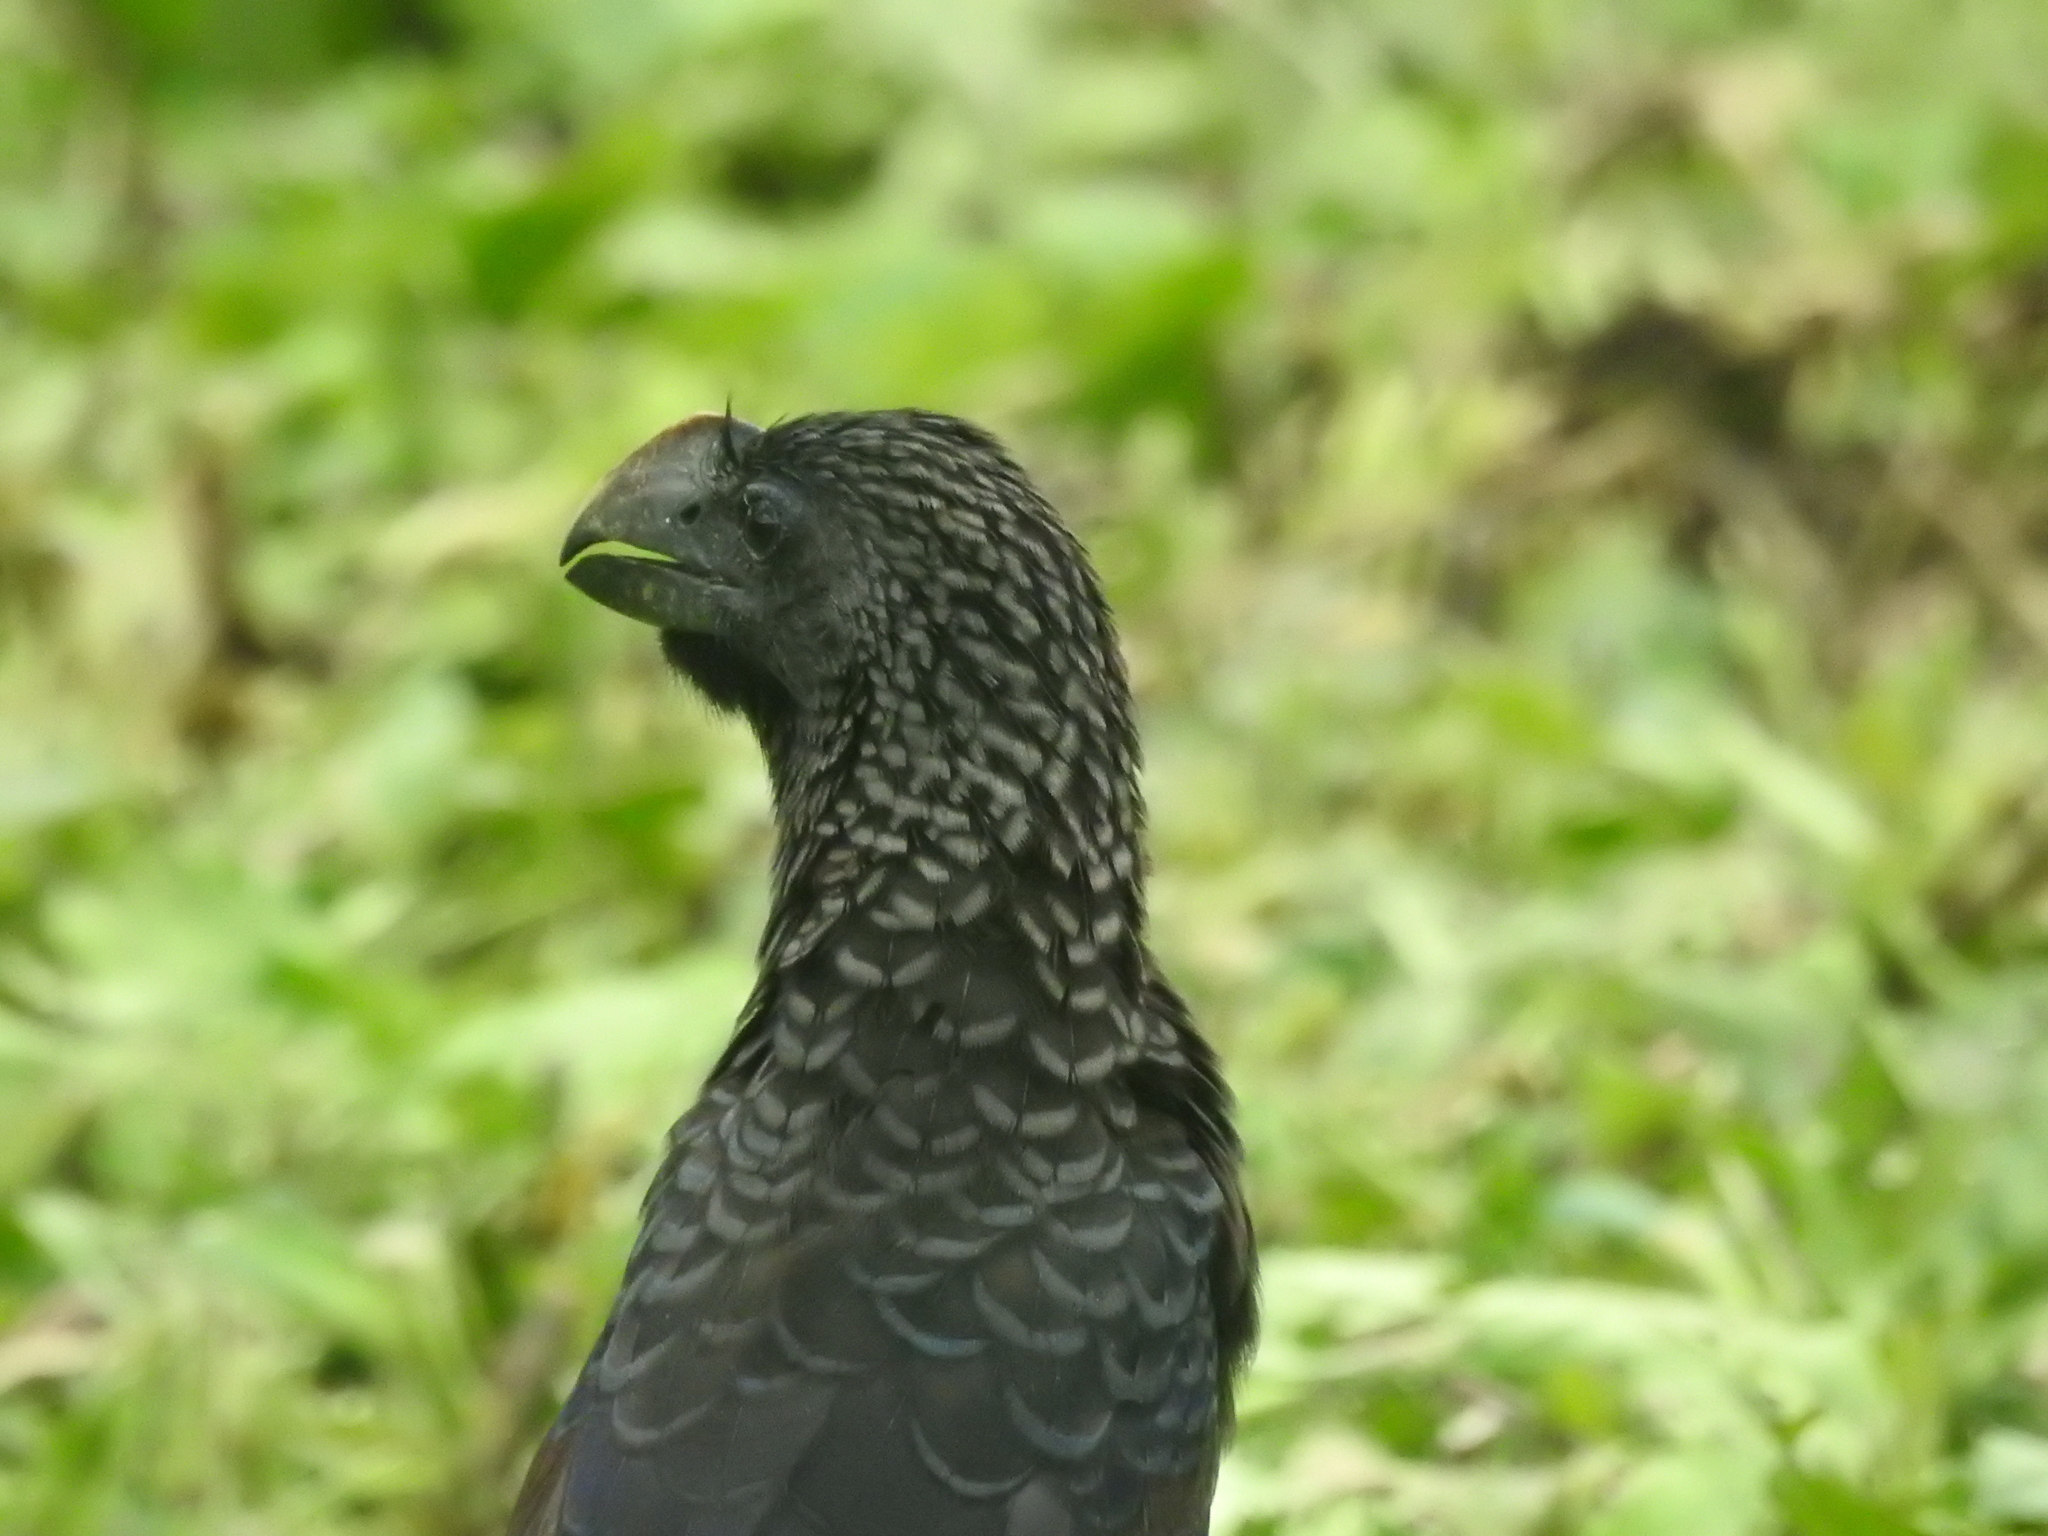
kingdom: Animalia
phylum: Chordata
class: Aves
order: Cuculiformes
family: Cuculidae
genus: Crotophaga
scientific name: Crotophaga ani
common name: Smooth-billed ani
